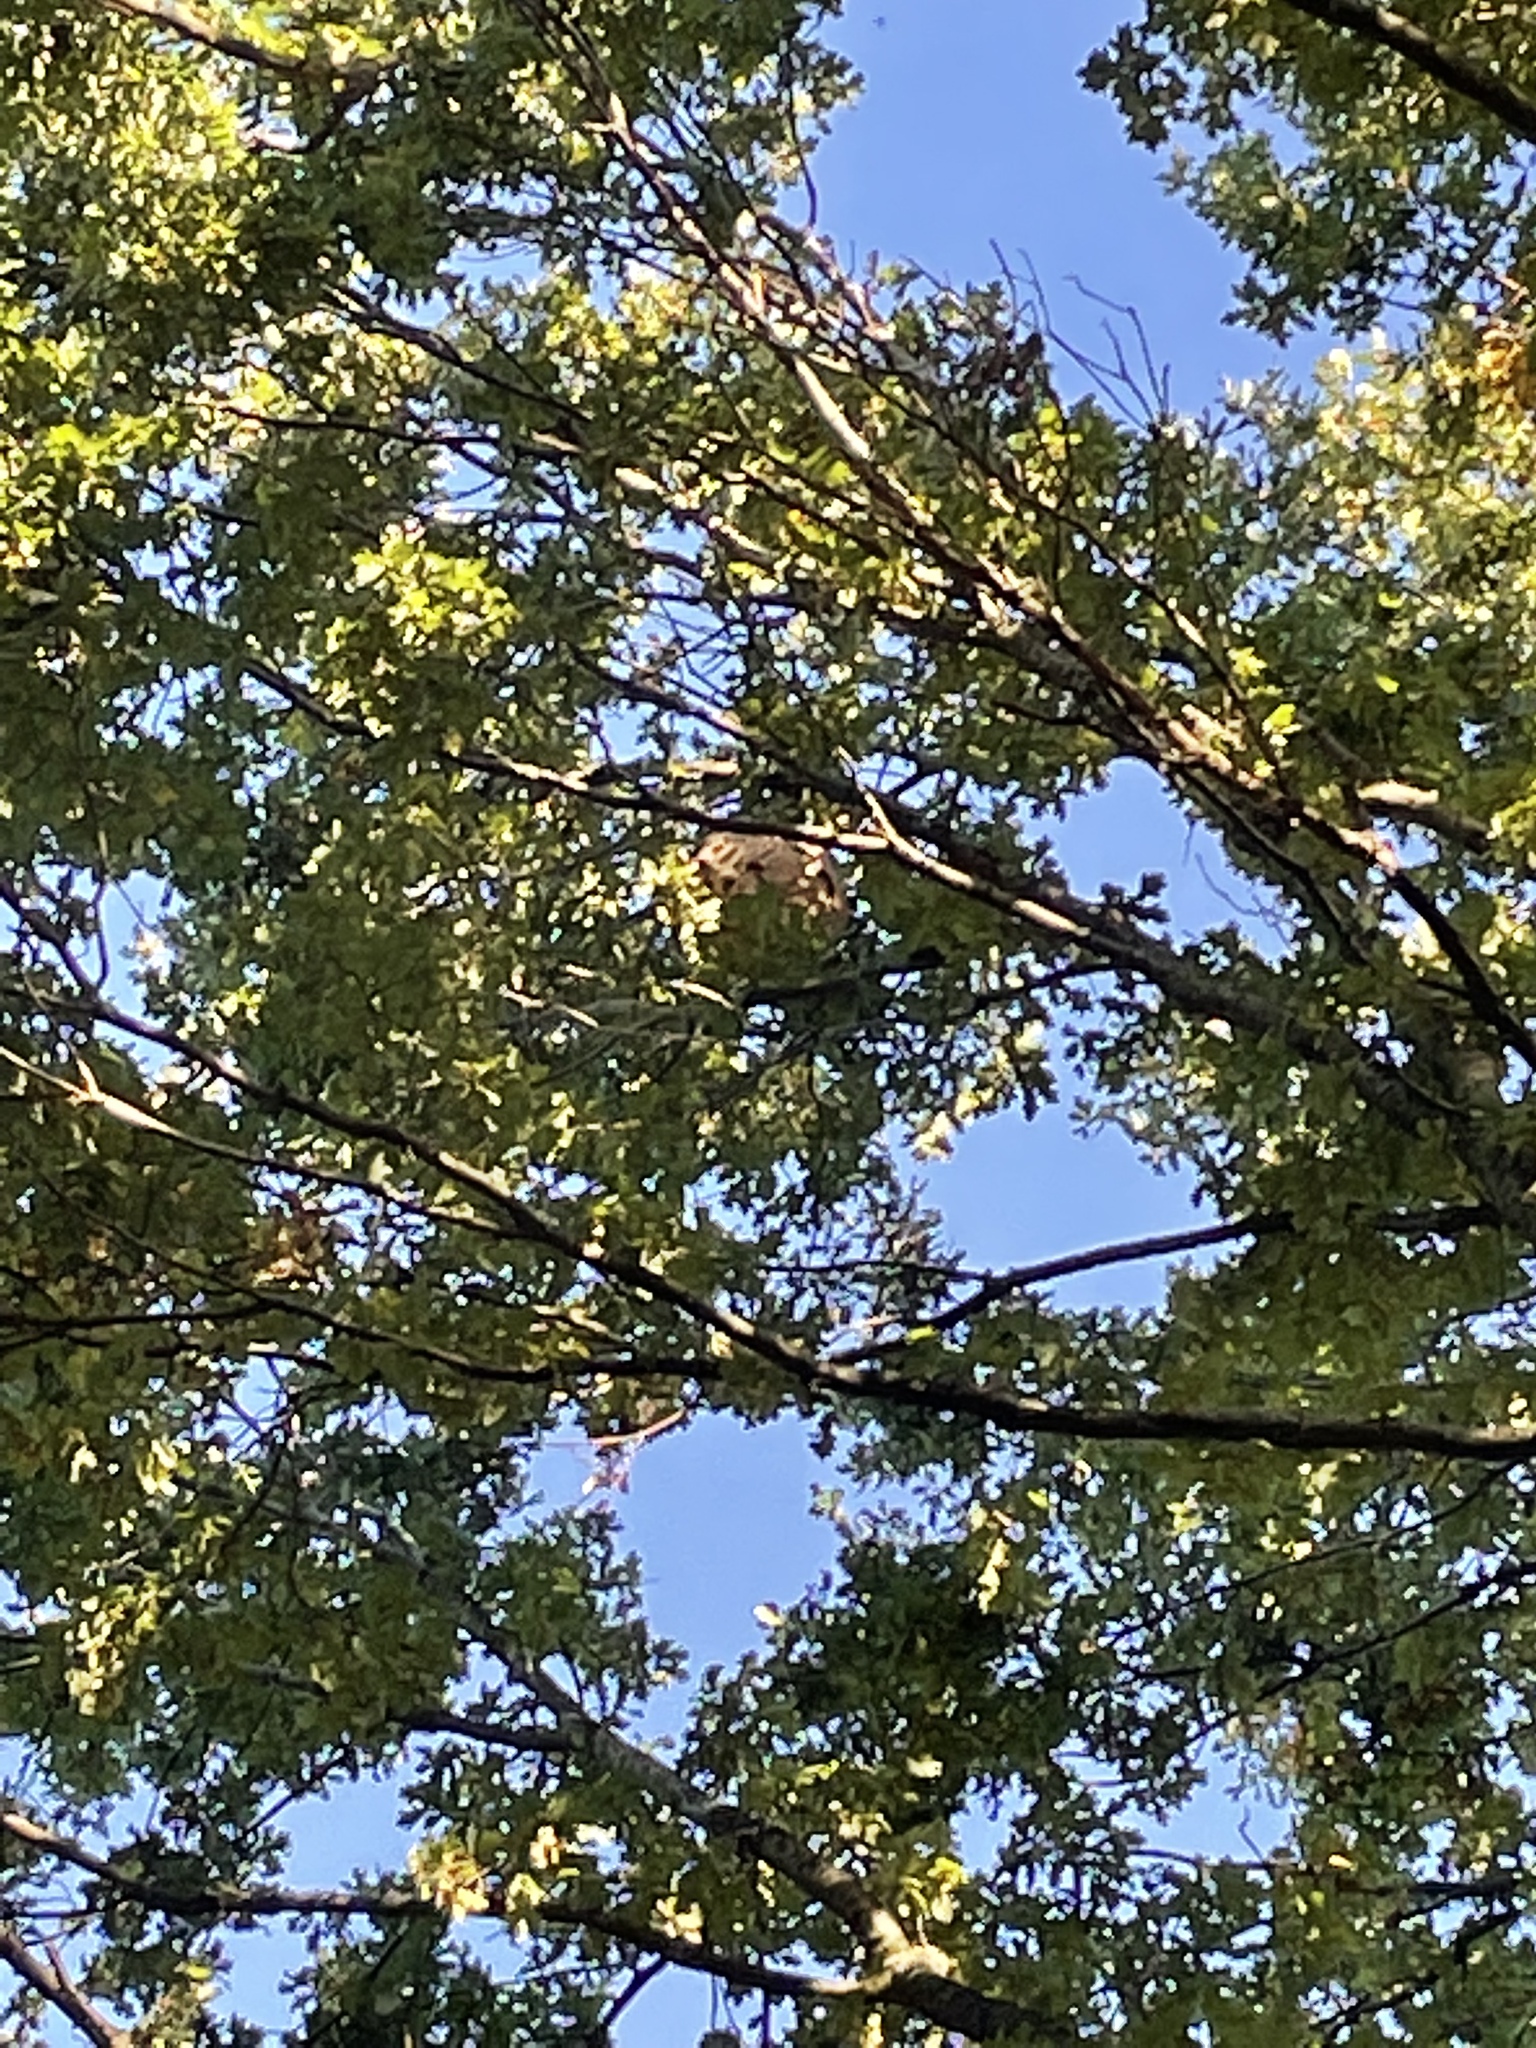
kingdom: Animalia
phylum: Arthropoda
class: Insecta
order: Hymenoptera
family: Vespidae
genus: Vespa
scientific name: Vespa velutina
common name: Asian hornet
